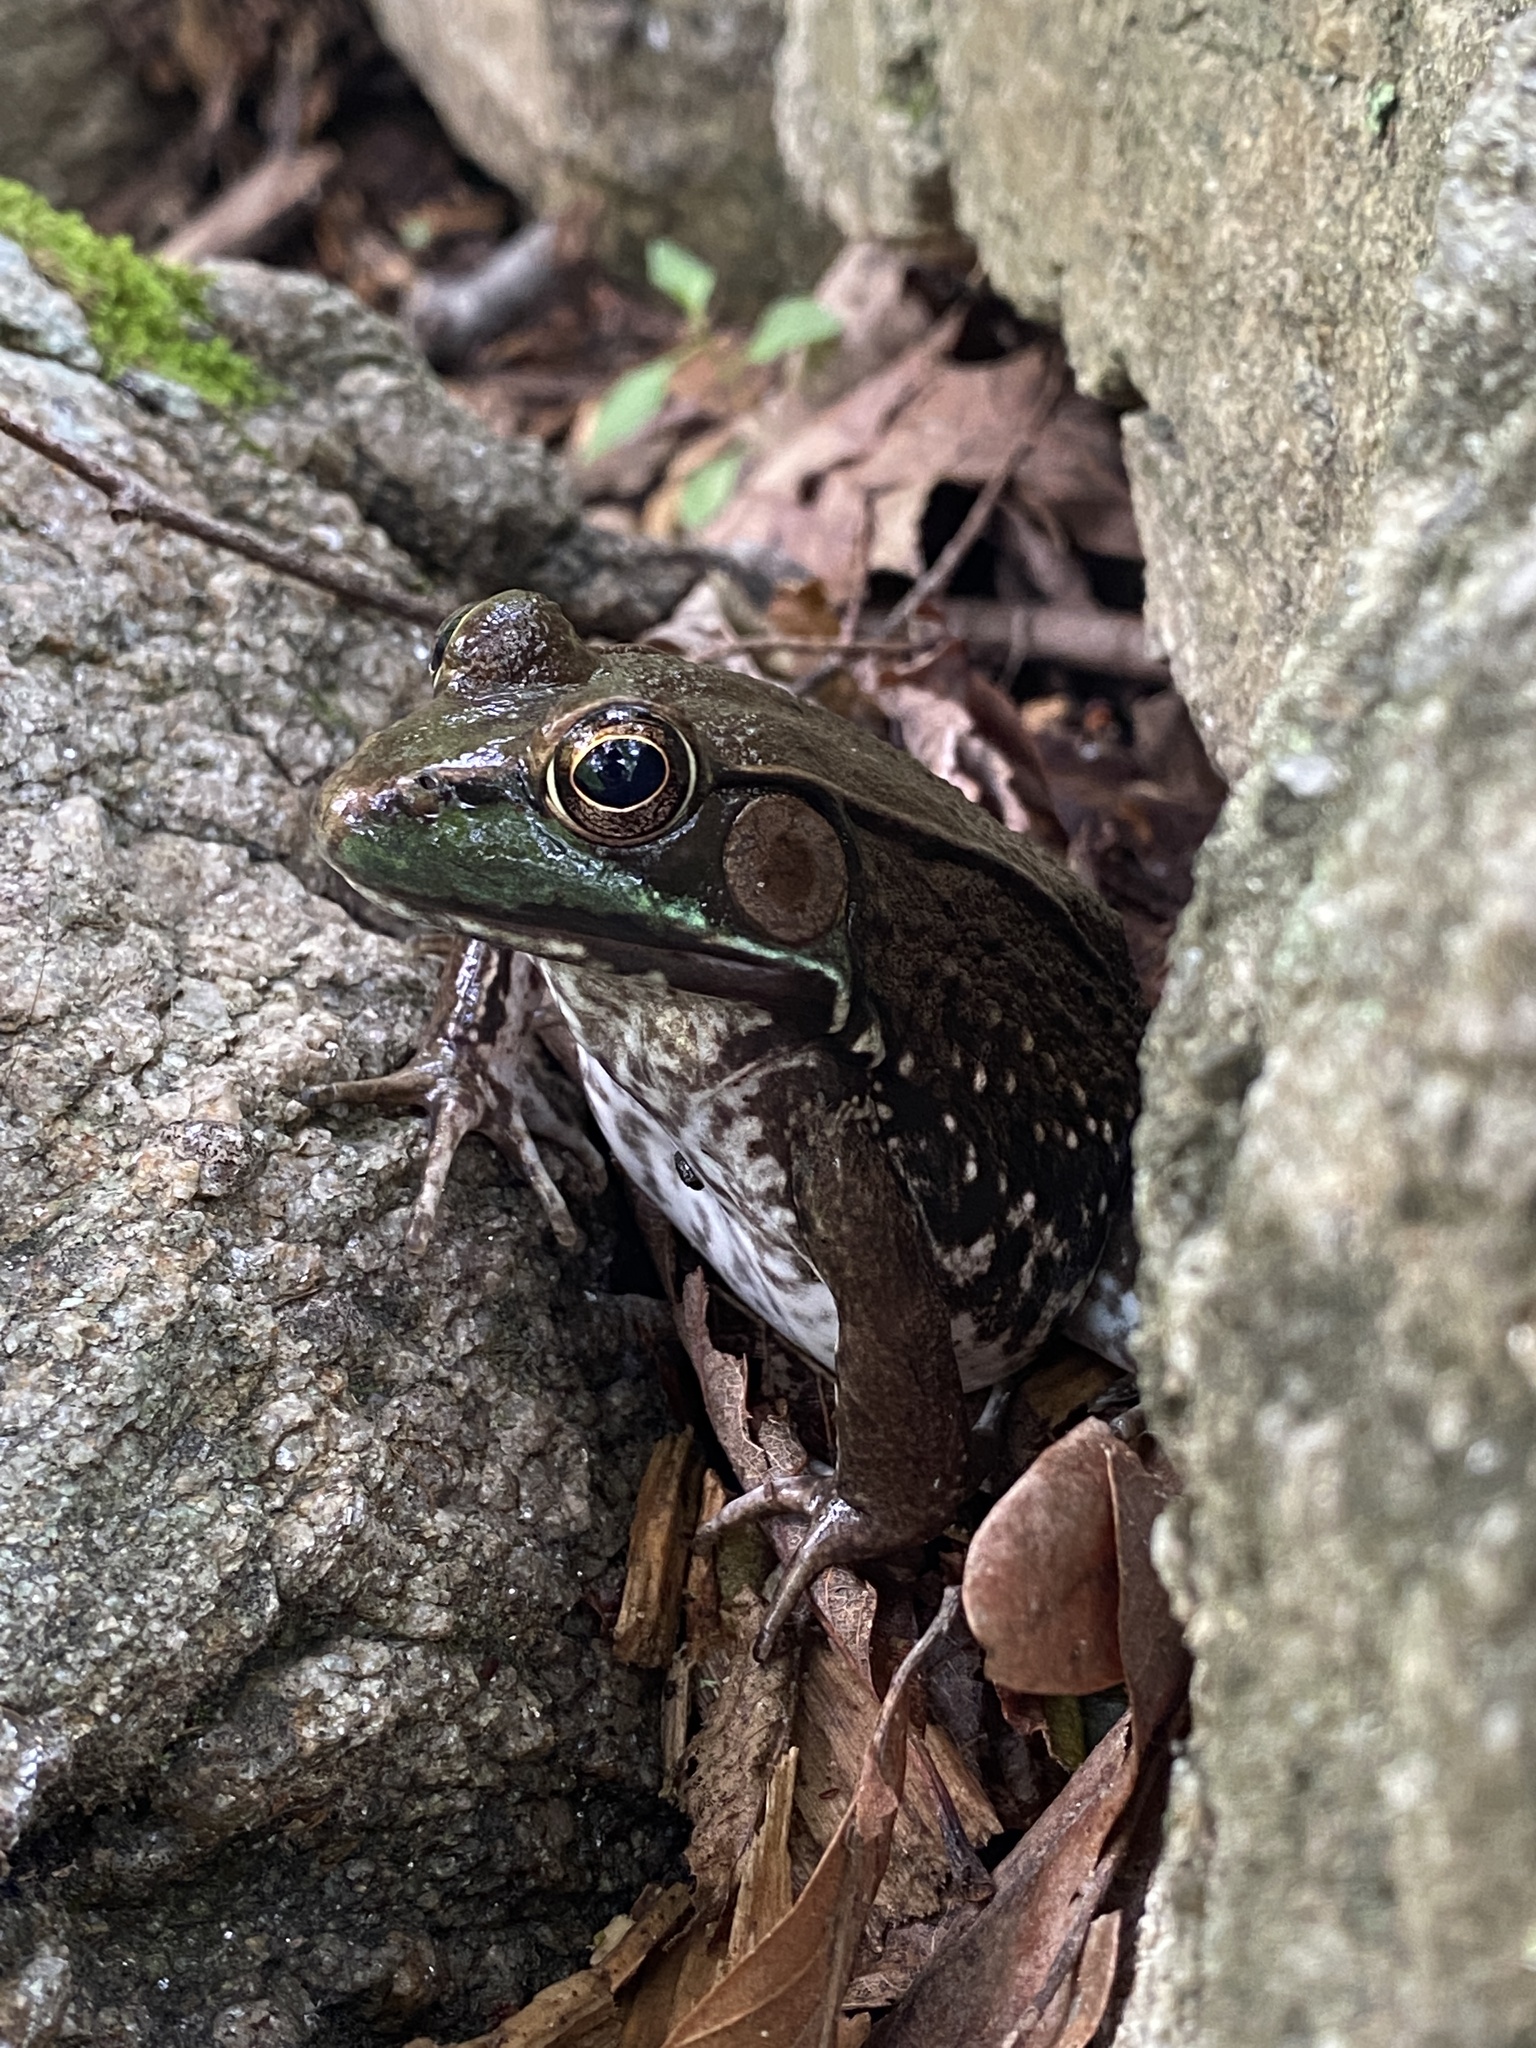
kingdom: Animalia
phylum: Chordata
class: Amphibia
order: Anura
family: Ranidae
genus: Lithobates
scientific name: Lithobates clamitans
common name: Green frog
